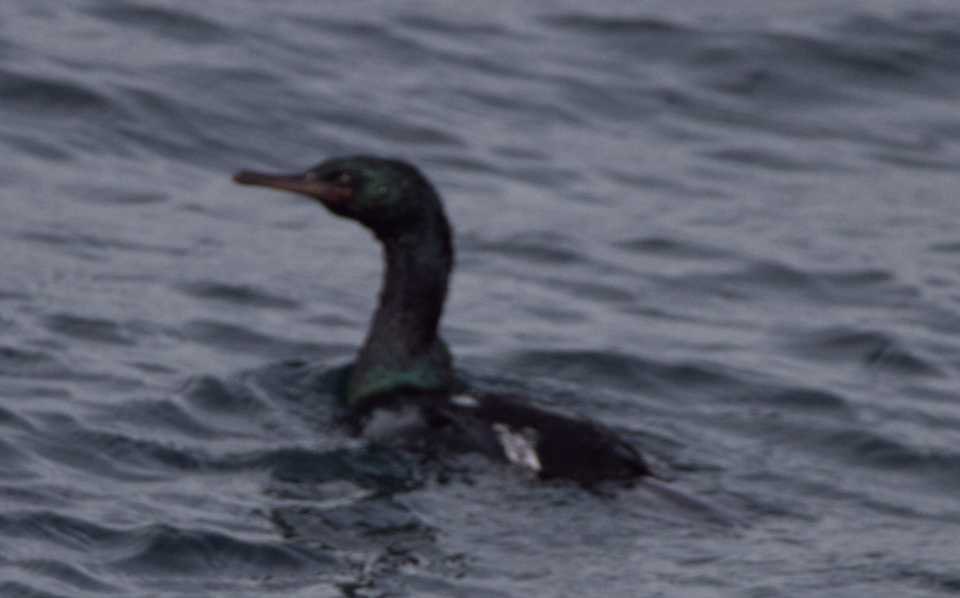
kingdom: Animalia
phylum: Chordata
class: Aves
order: Suliformes
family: Phalacrocoracidae
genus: Phalacrocorax
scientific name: Phalacrocorax pelagicus
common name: Pelagic cormorant
